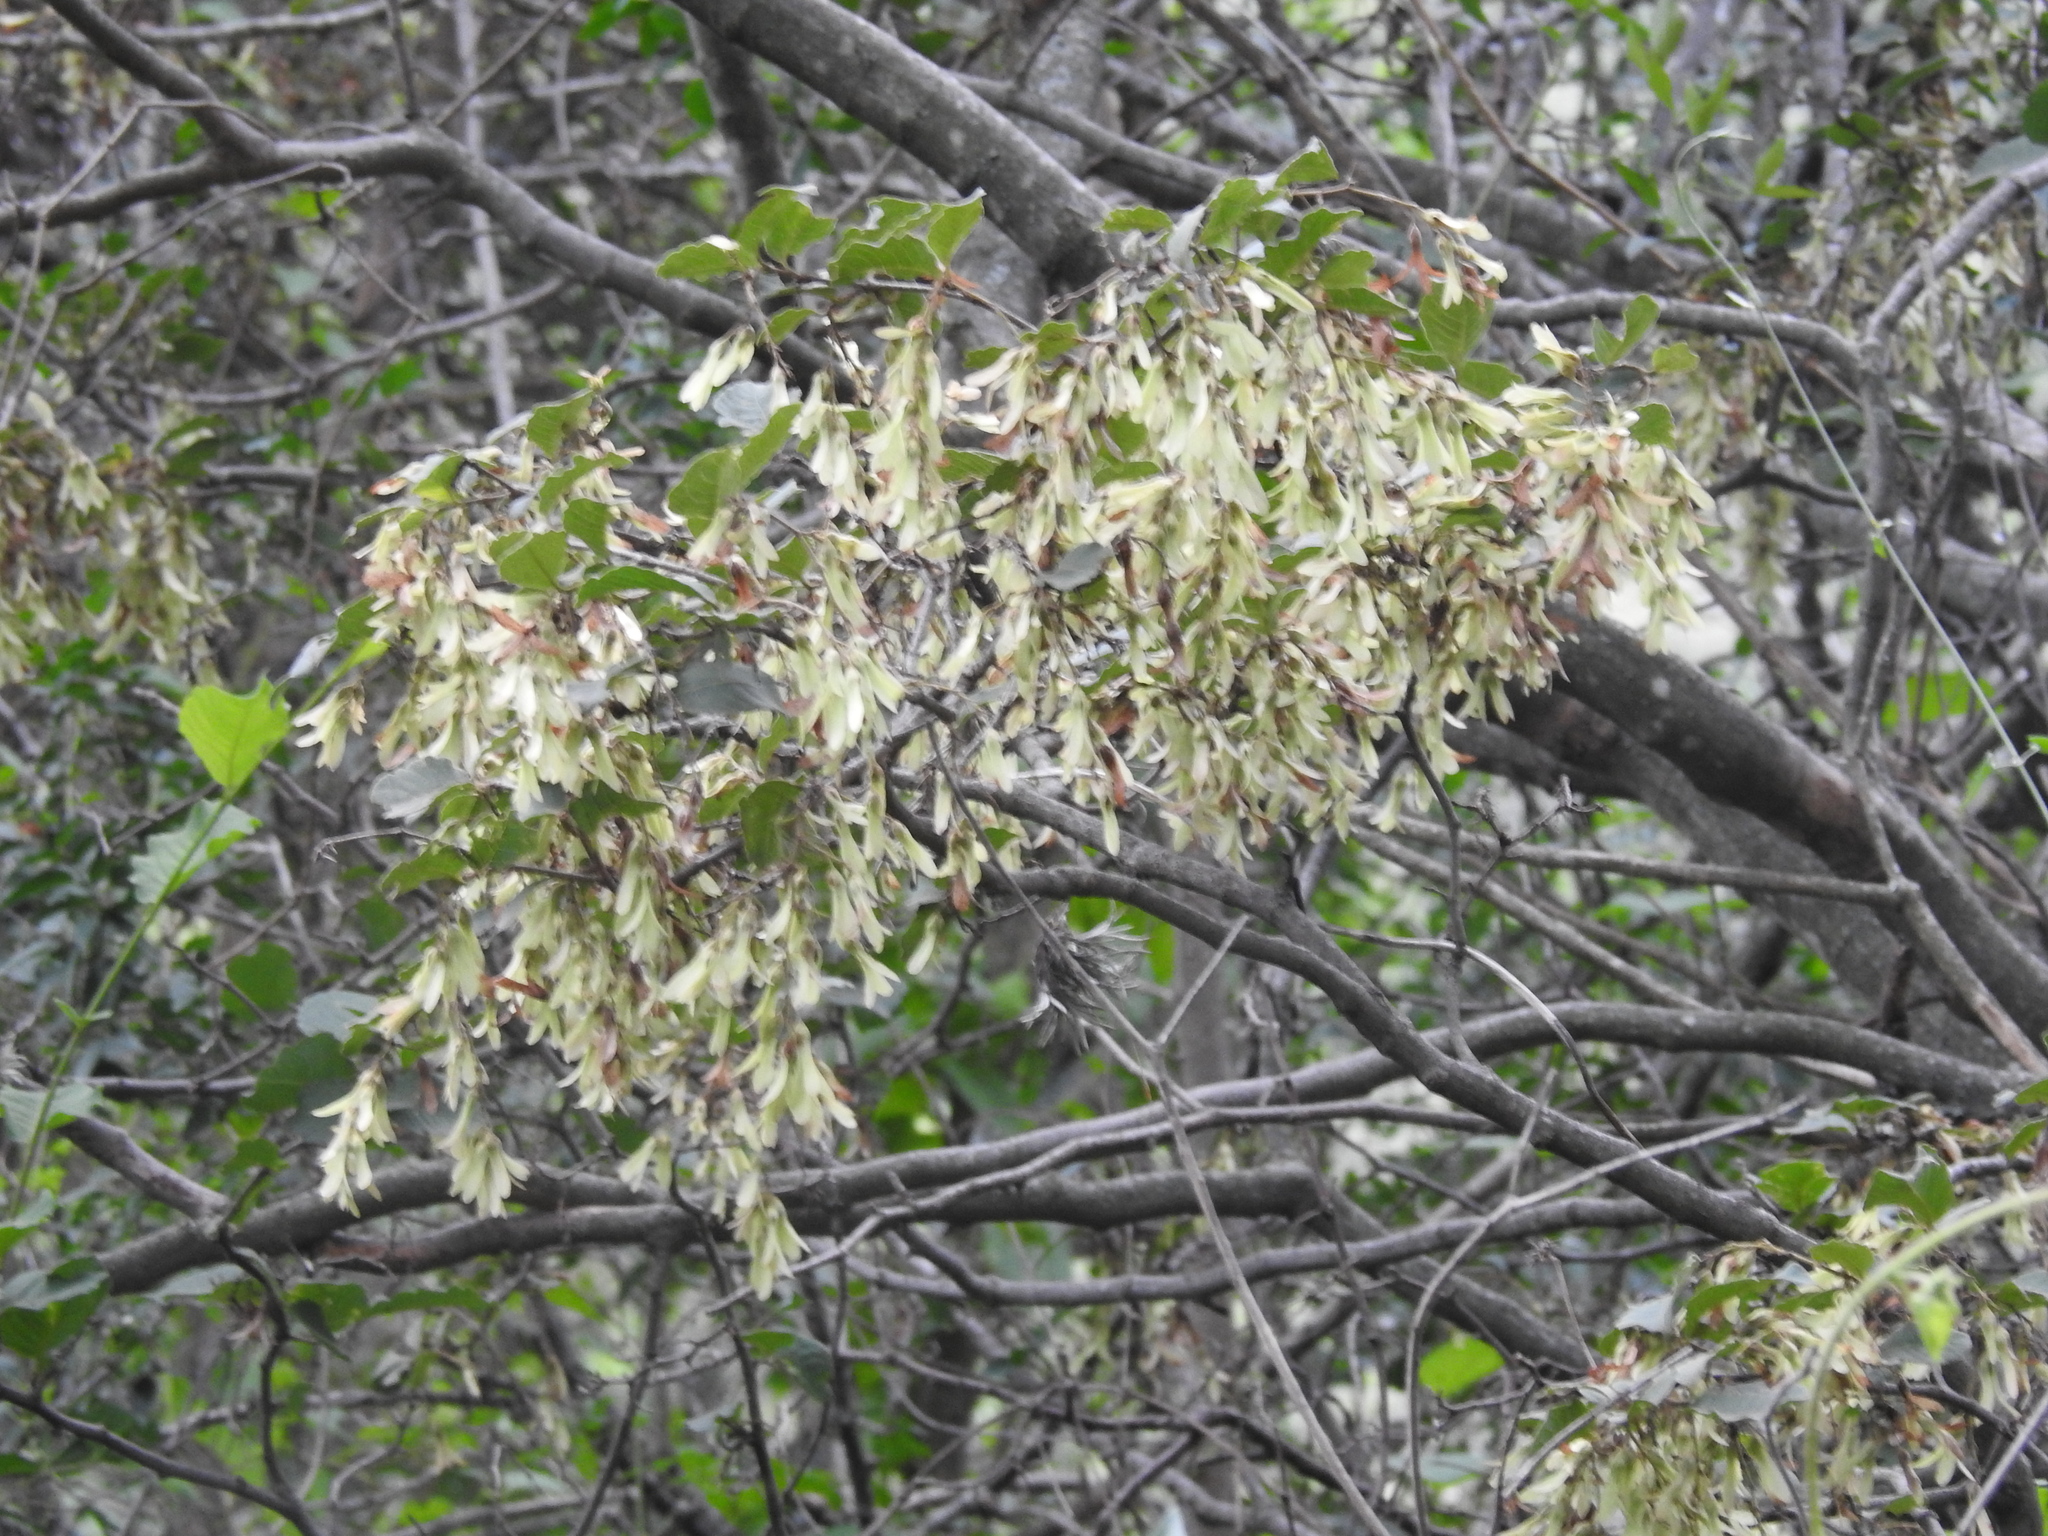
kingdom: Plantae
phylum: Tracheophyta
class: Magnoliopsida
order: Caryophyllales
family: Polygonaceae
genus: Ruprechtia
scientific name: Ruprechtia apetala
